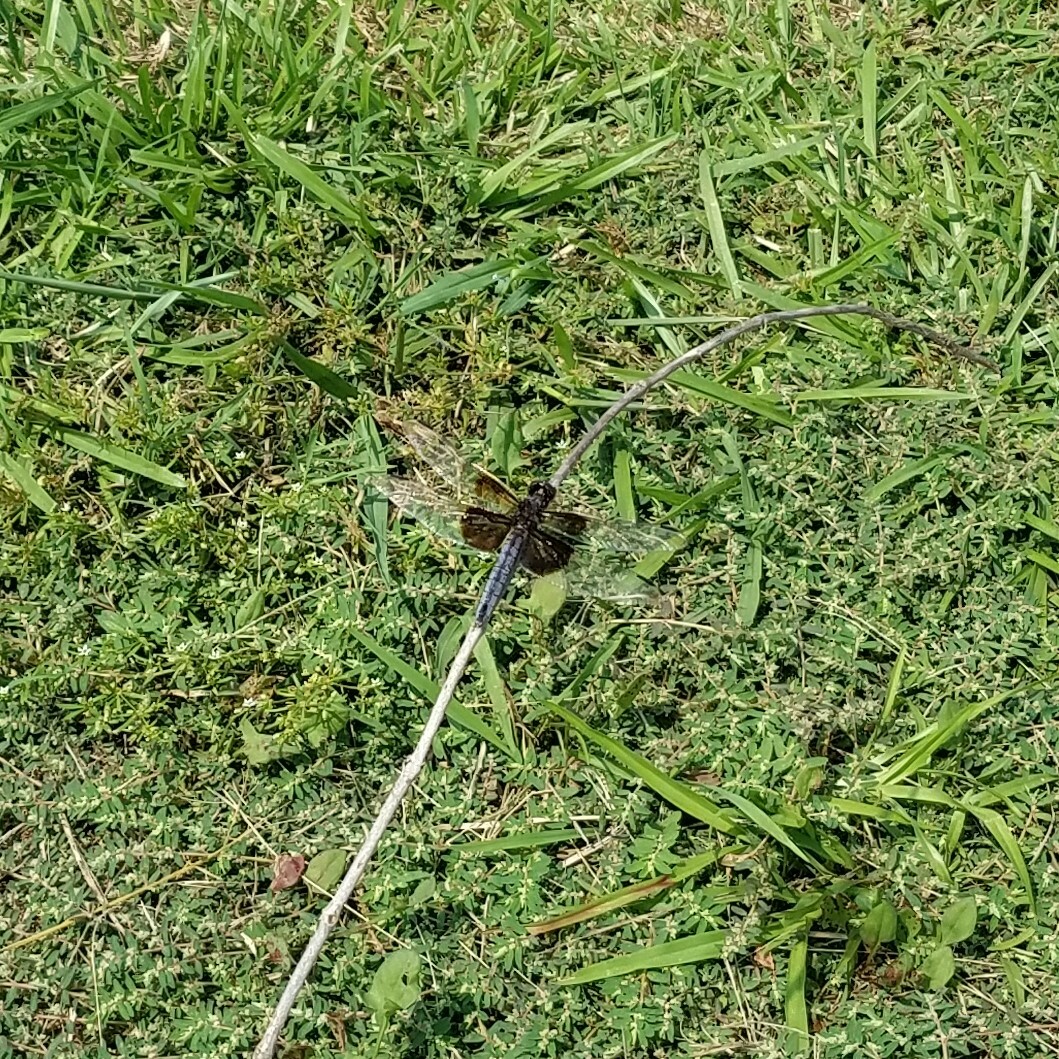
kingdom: Animalia
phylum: Arthropoda
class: Insecta
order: Odonata
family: Libellulidae
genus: Libellula
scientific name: Libellula luctuosa
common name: Widow skimmer
